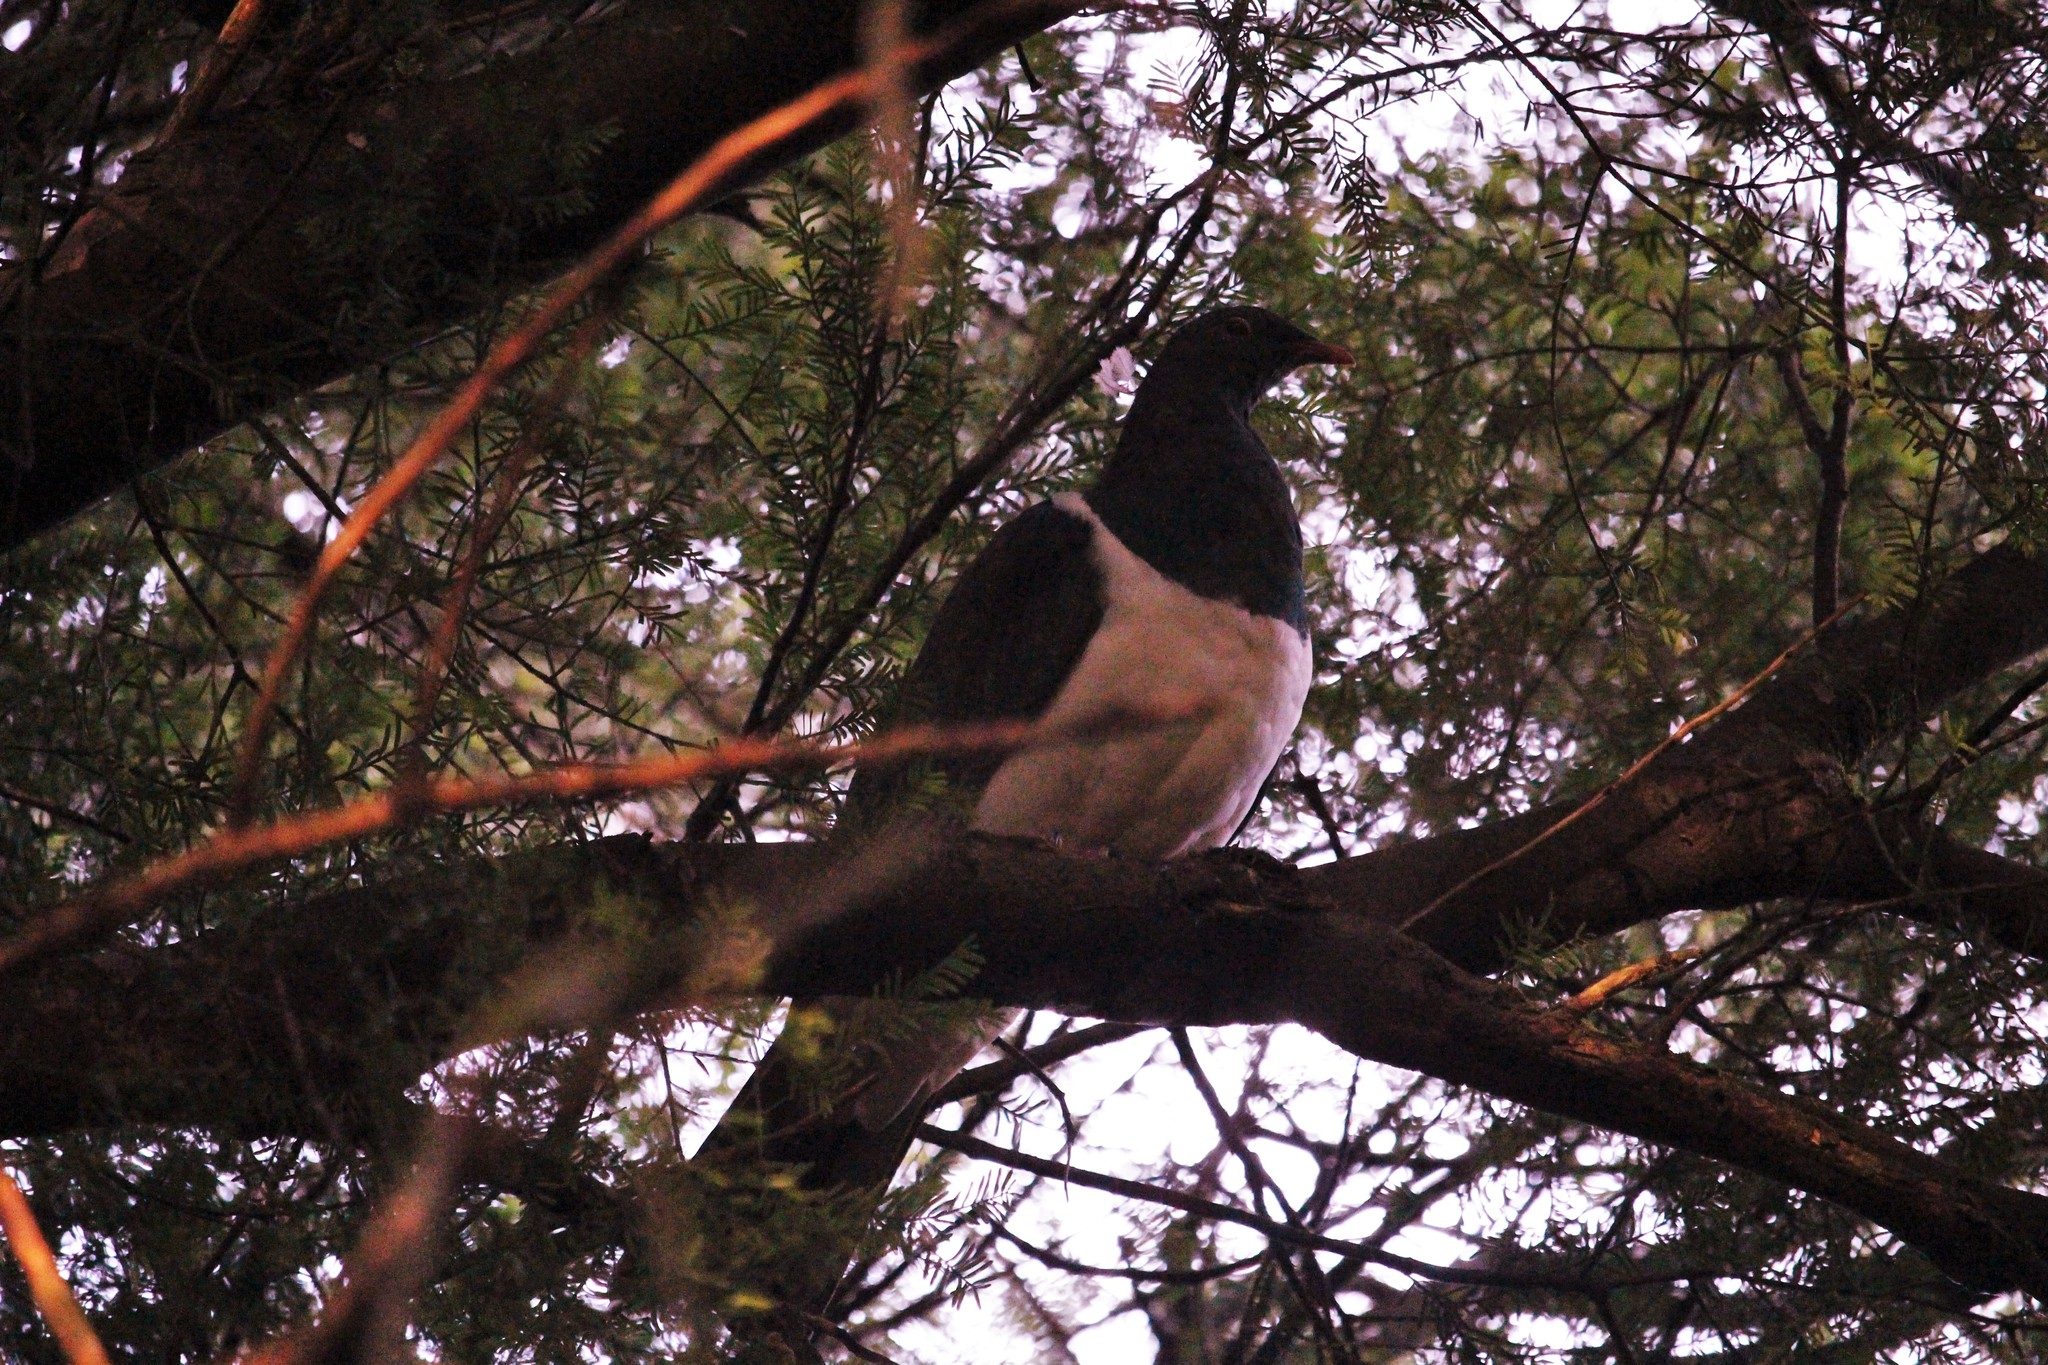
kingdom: Animalia
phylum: Chordata
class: Aves
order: Columbiformes
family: Columbidae
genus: Hemiphaga
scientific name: Hemiphaga novaeseelandiae
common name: New zealand pigeon
